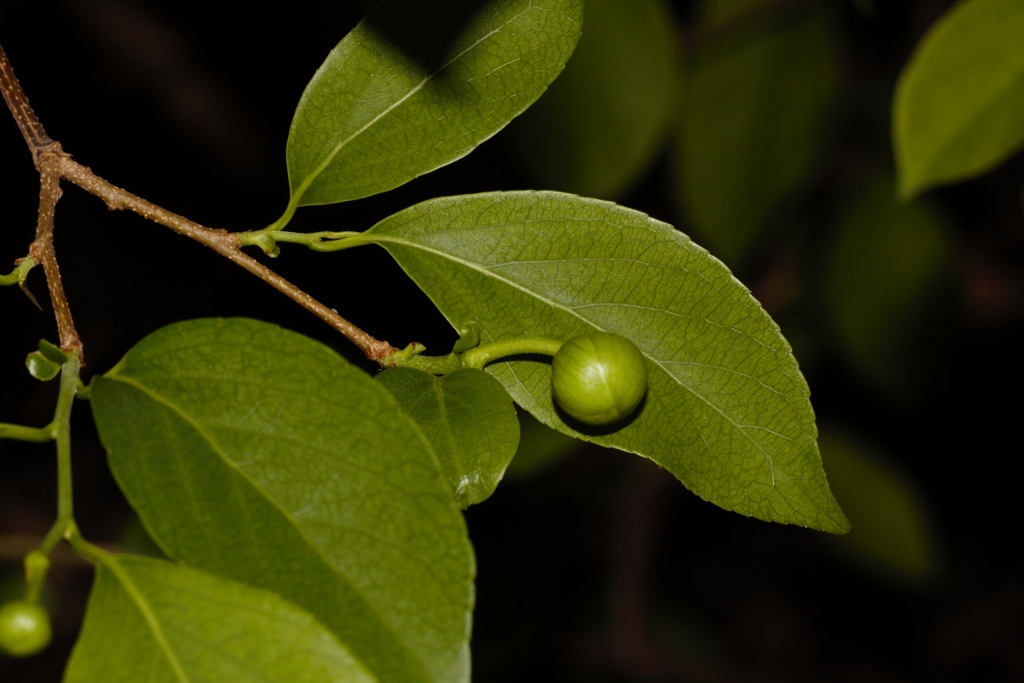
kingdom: Plantae
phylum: Tracheophyta
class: Magnoliopsida
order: Malpighiales
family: Salicaceae
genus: Oncoba
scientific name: Oncoba spinosa
